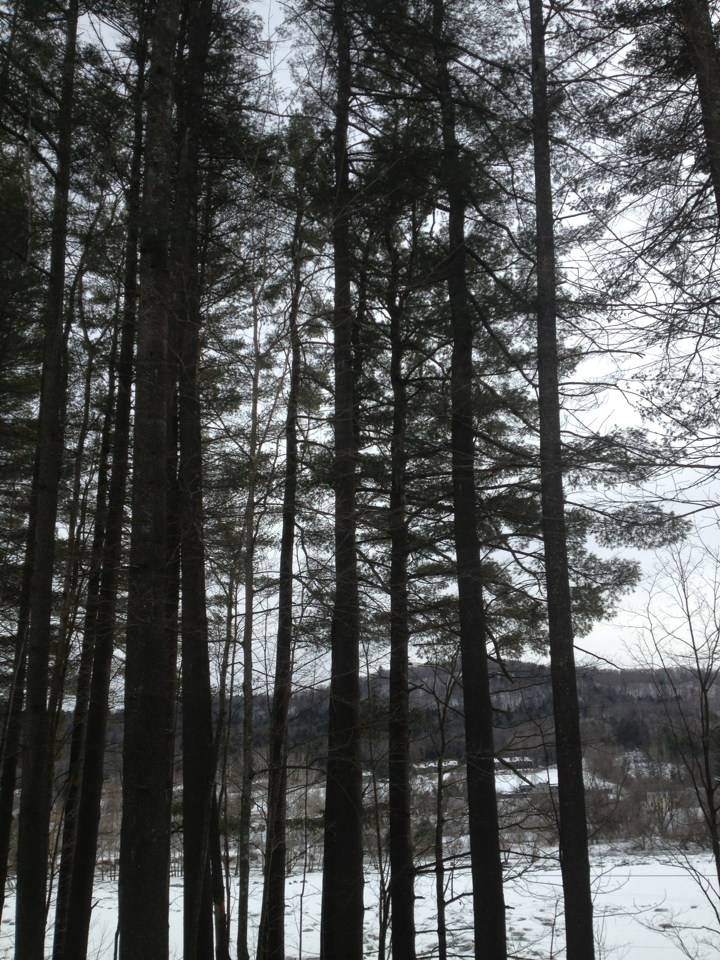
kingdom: Plantae
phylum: Tracheophyta
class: Pinopsida
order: Pinales
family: Pinaceae
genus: Pinus
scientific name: Pinus strobus
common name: Weymouth pine
